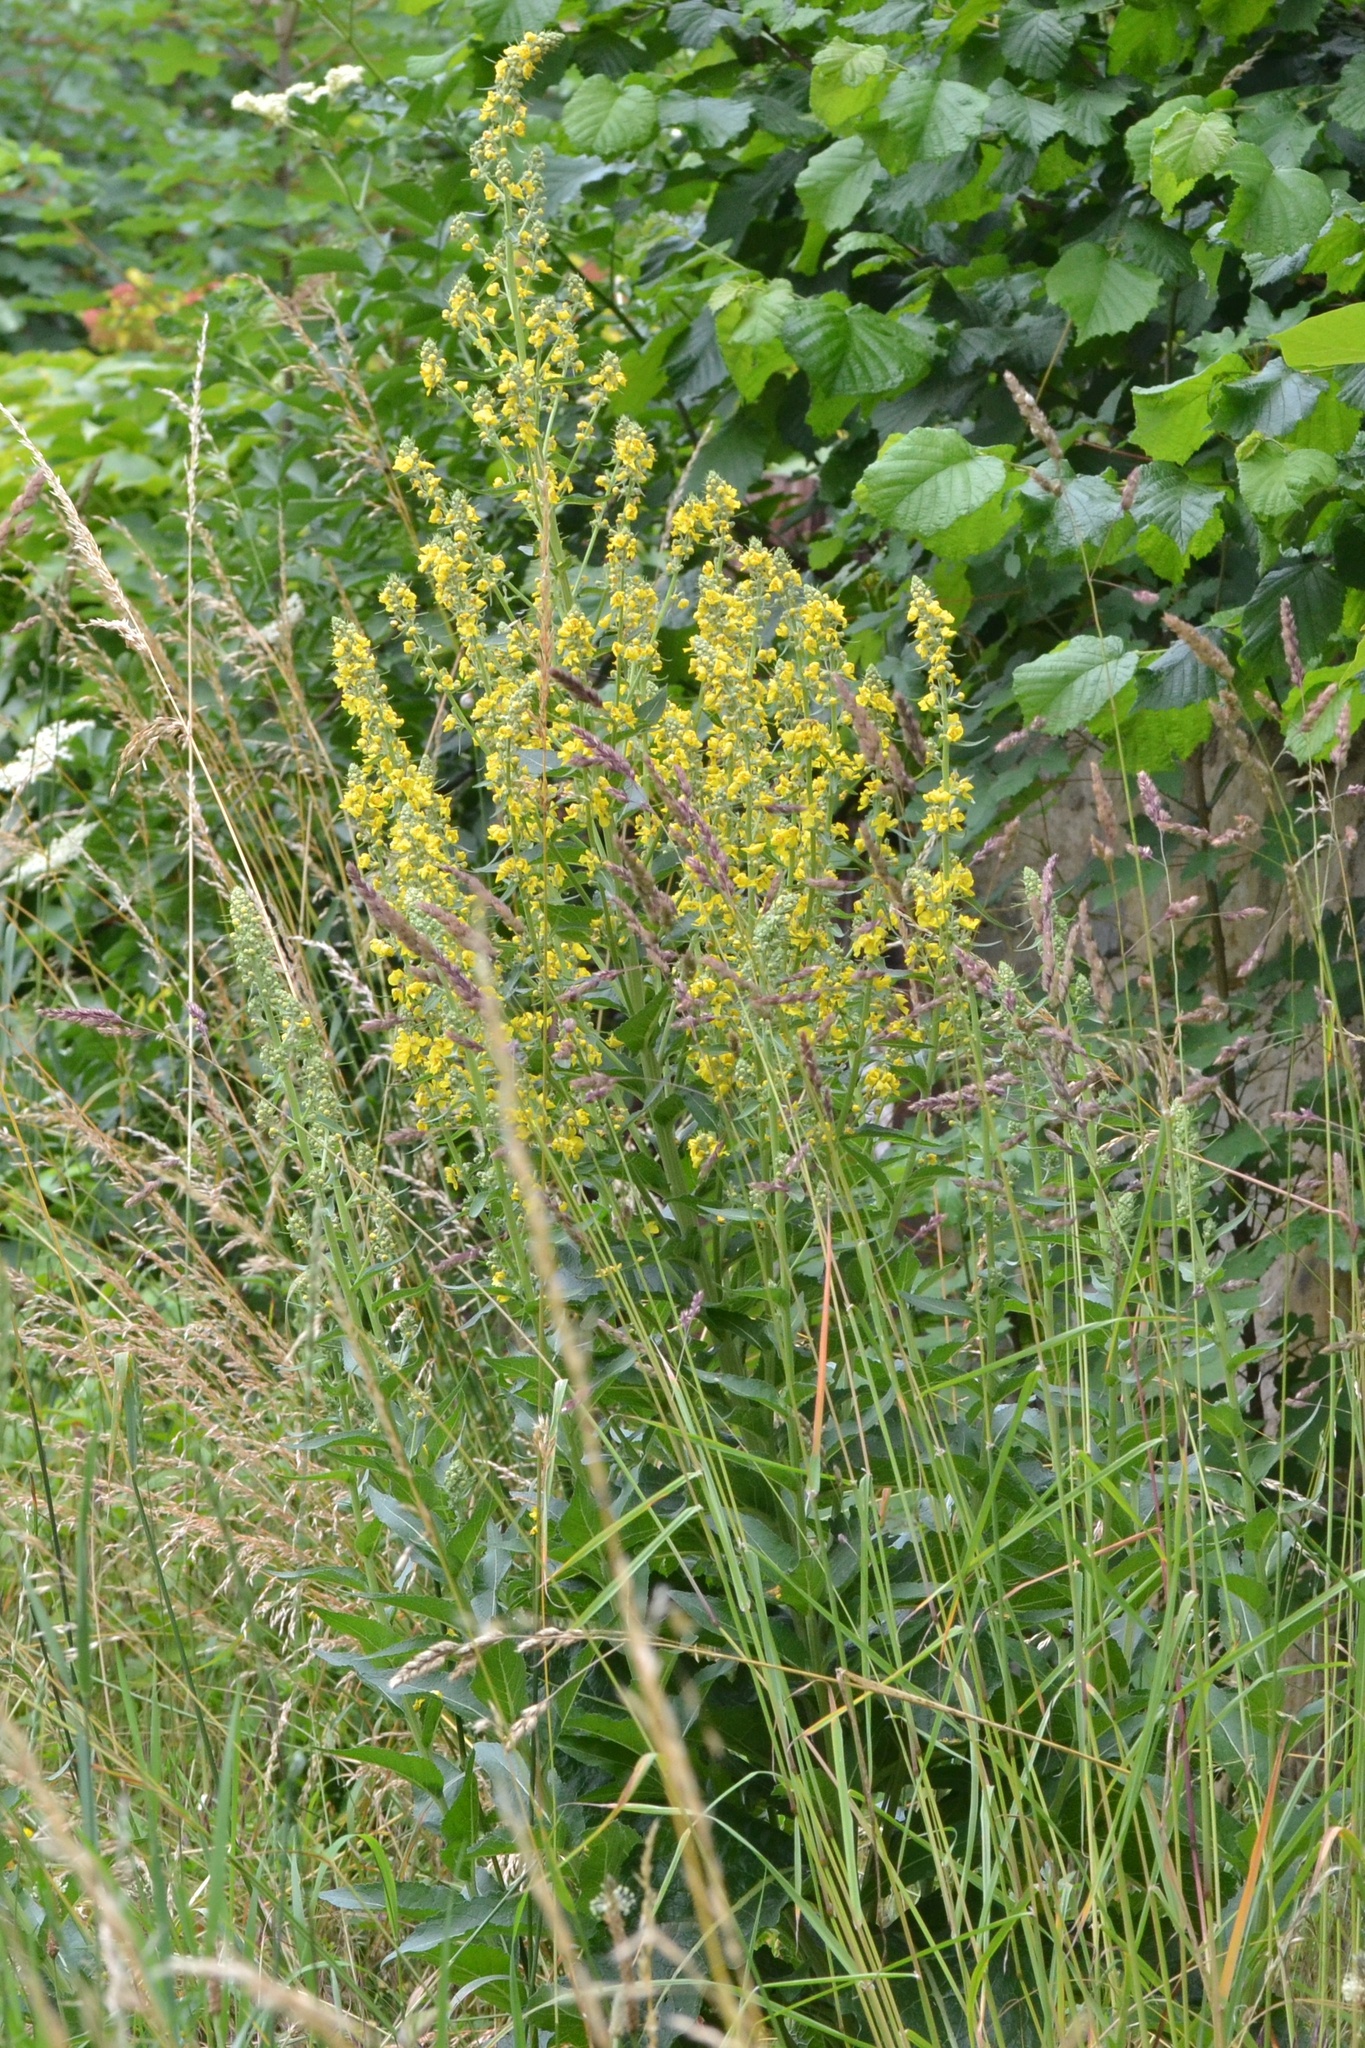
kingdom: Plantae
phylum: Tracheophyta
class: Magnoliopsida
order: Lamiales
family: Scrophulariaceae
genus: Verbascum
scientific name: Verbascum lychnitis
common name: White mullein
